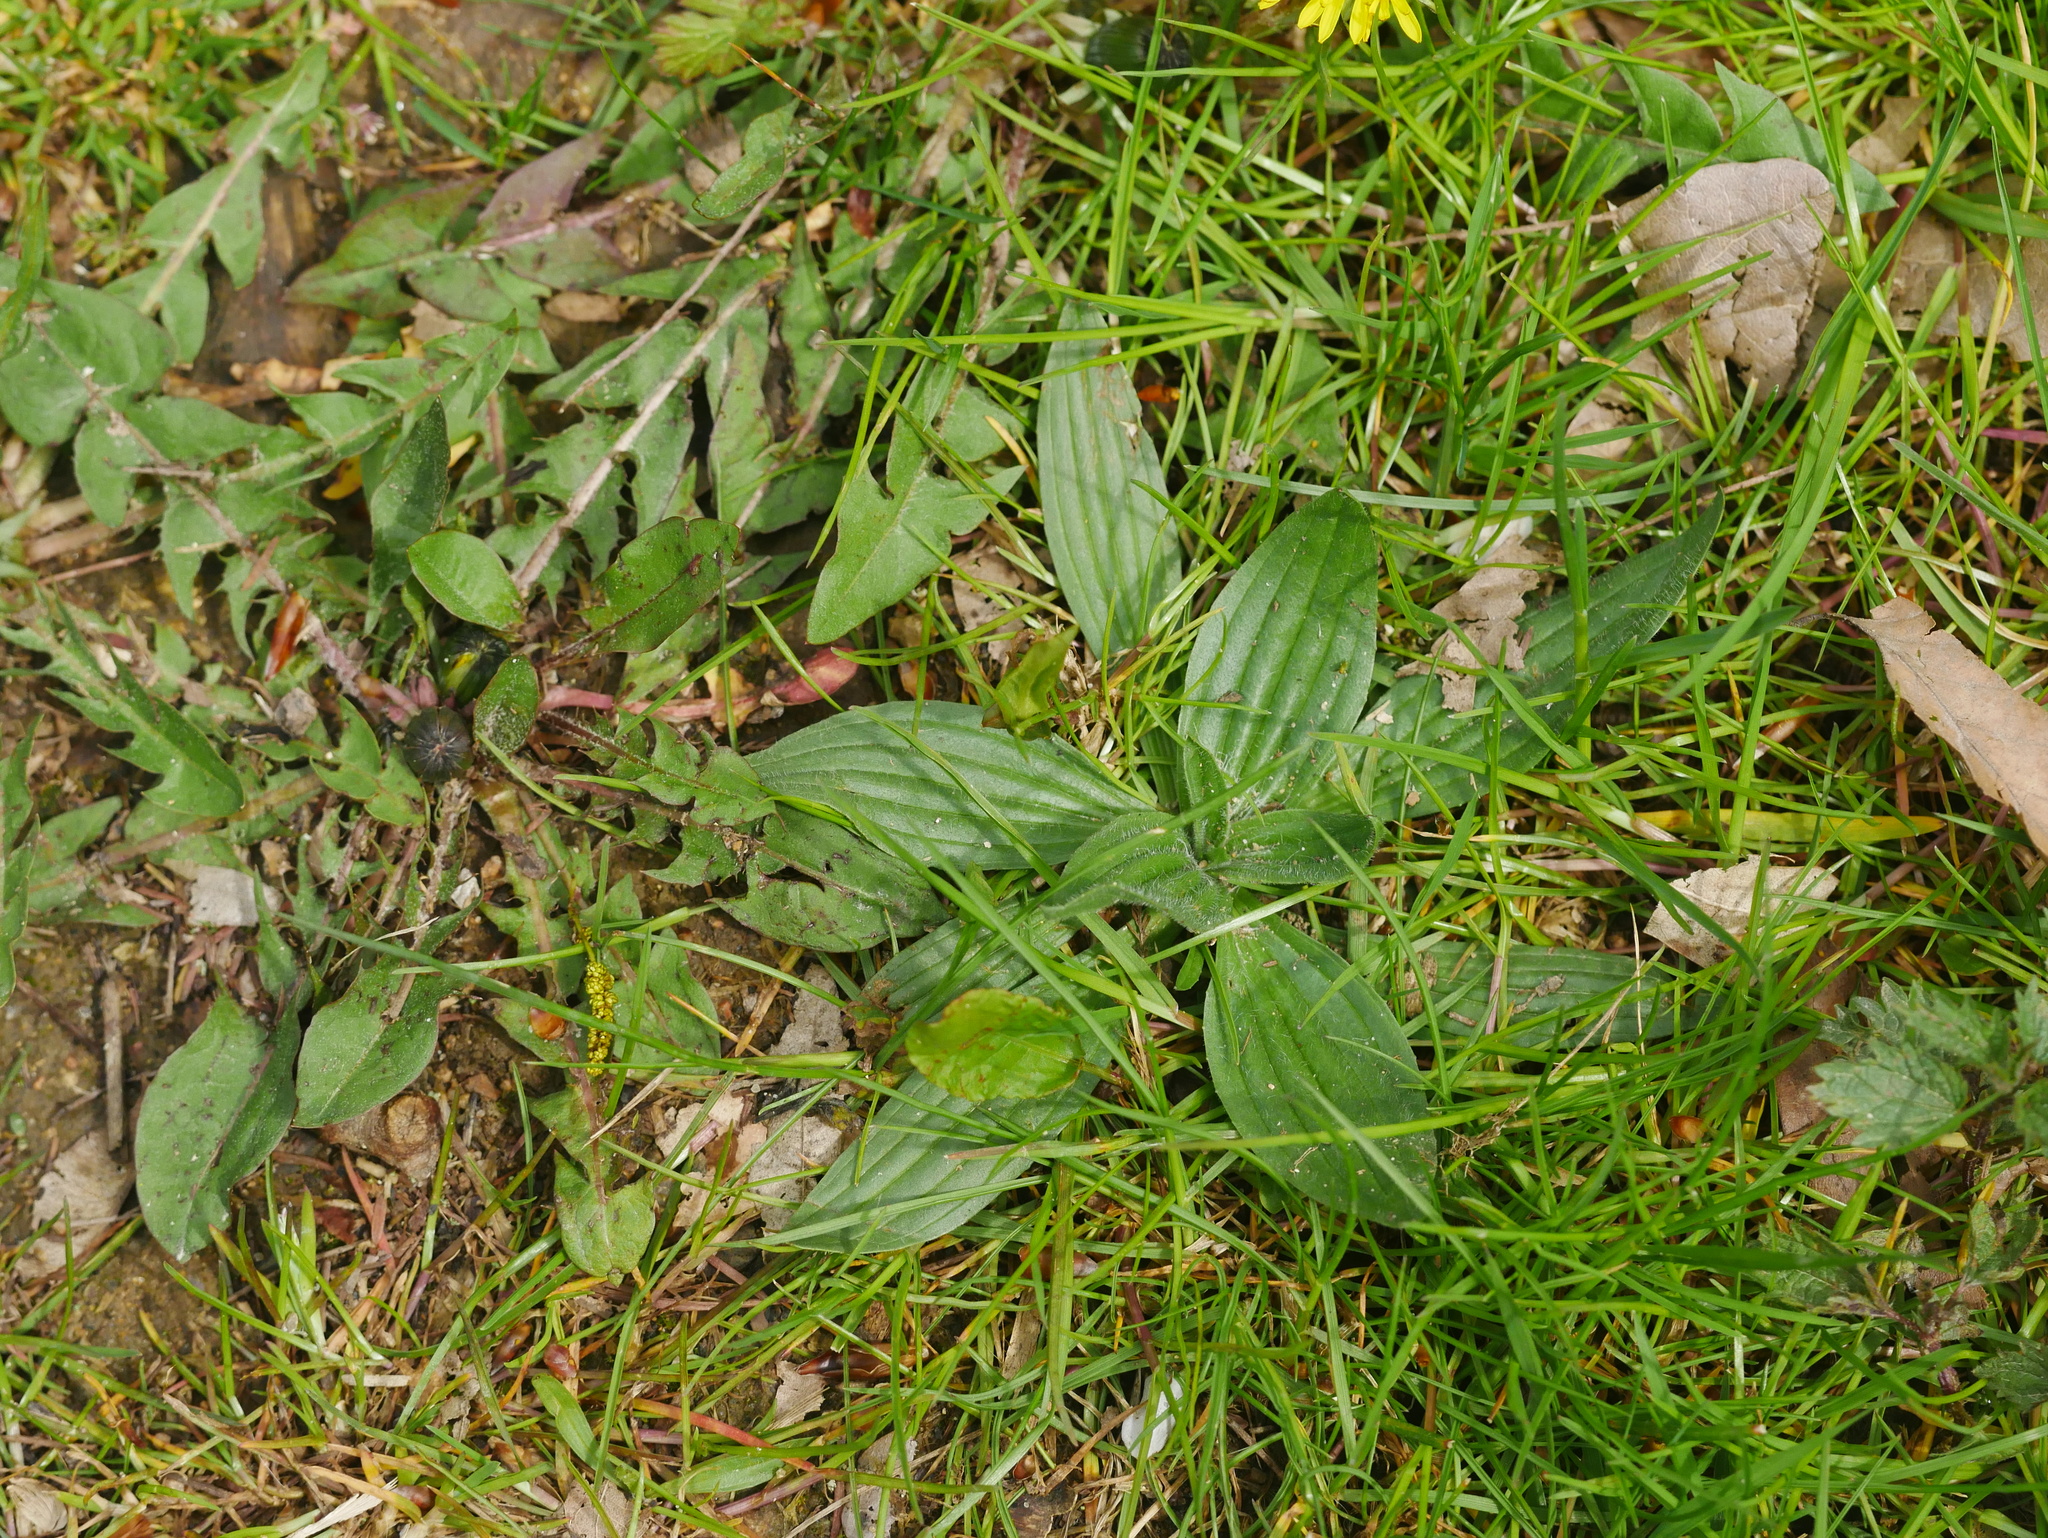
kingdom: Plantae
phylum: Tracheophyta
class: Magnoliopsida
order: Lamiales
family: Plantaginaceae
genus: Plantago
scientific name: Plantago lanceolata
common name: Ribwort plantain
